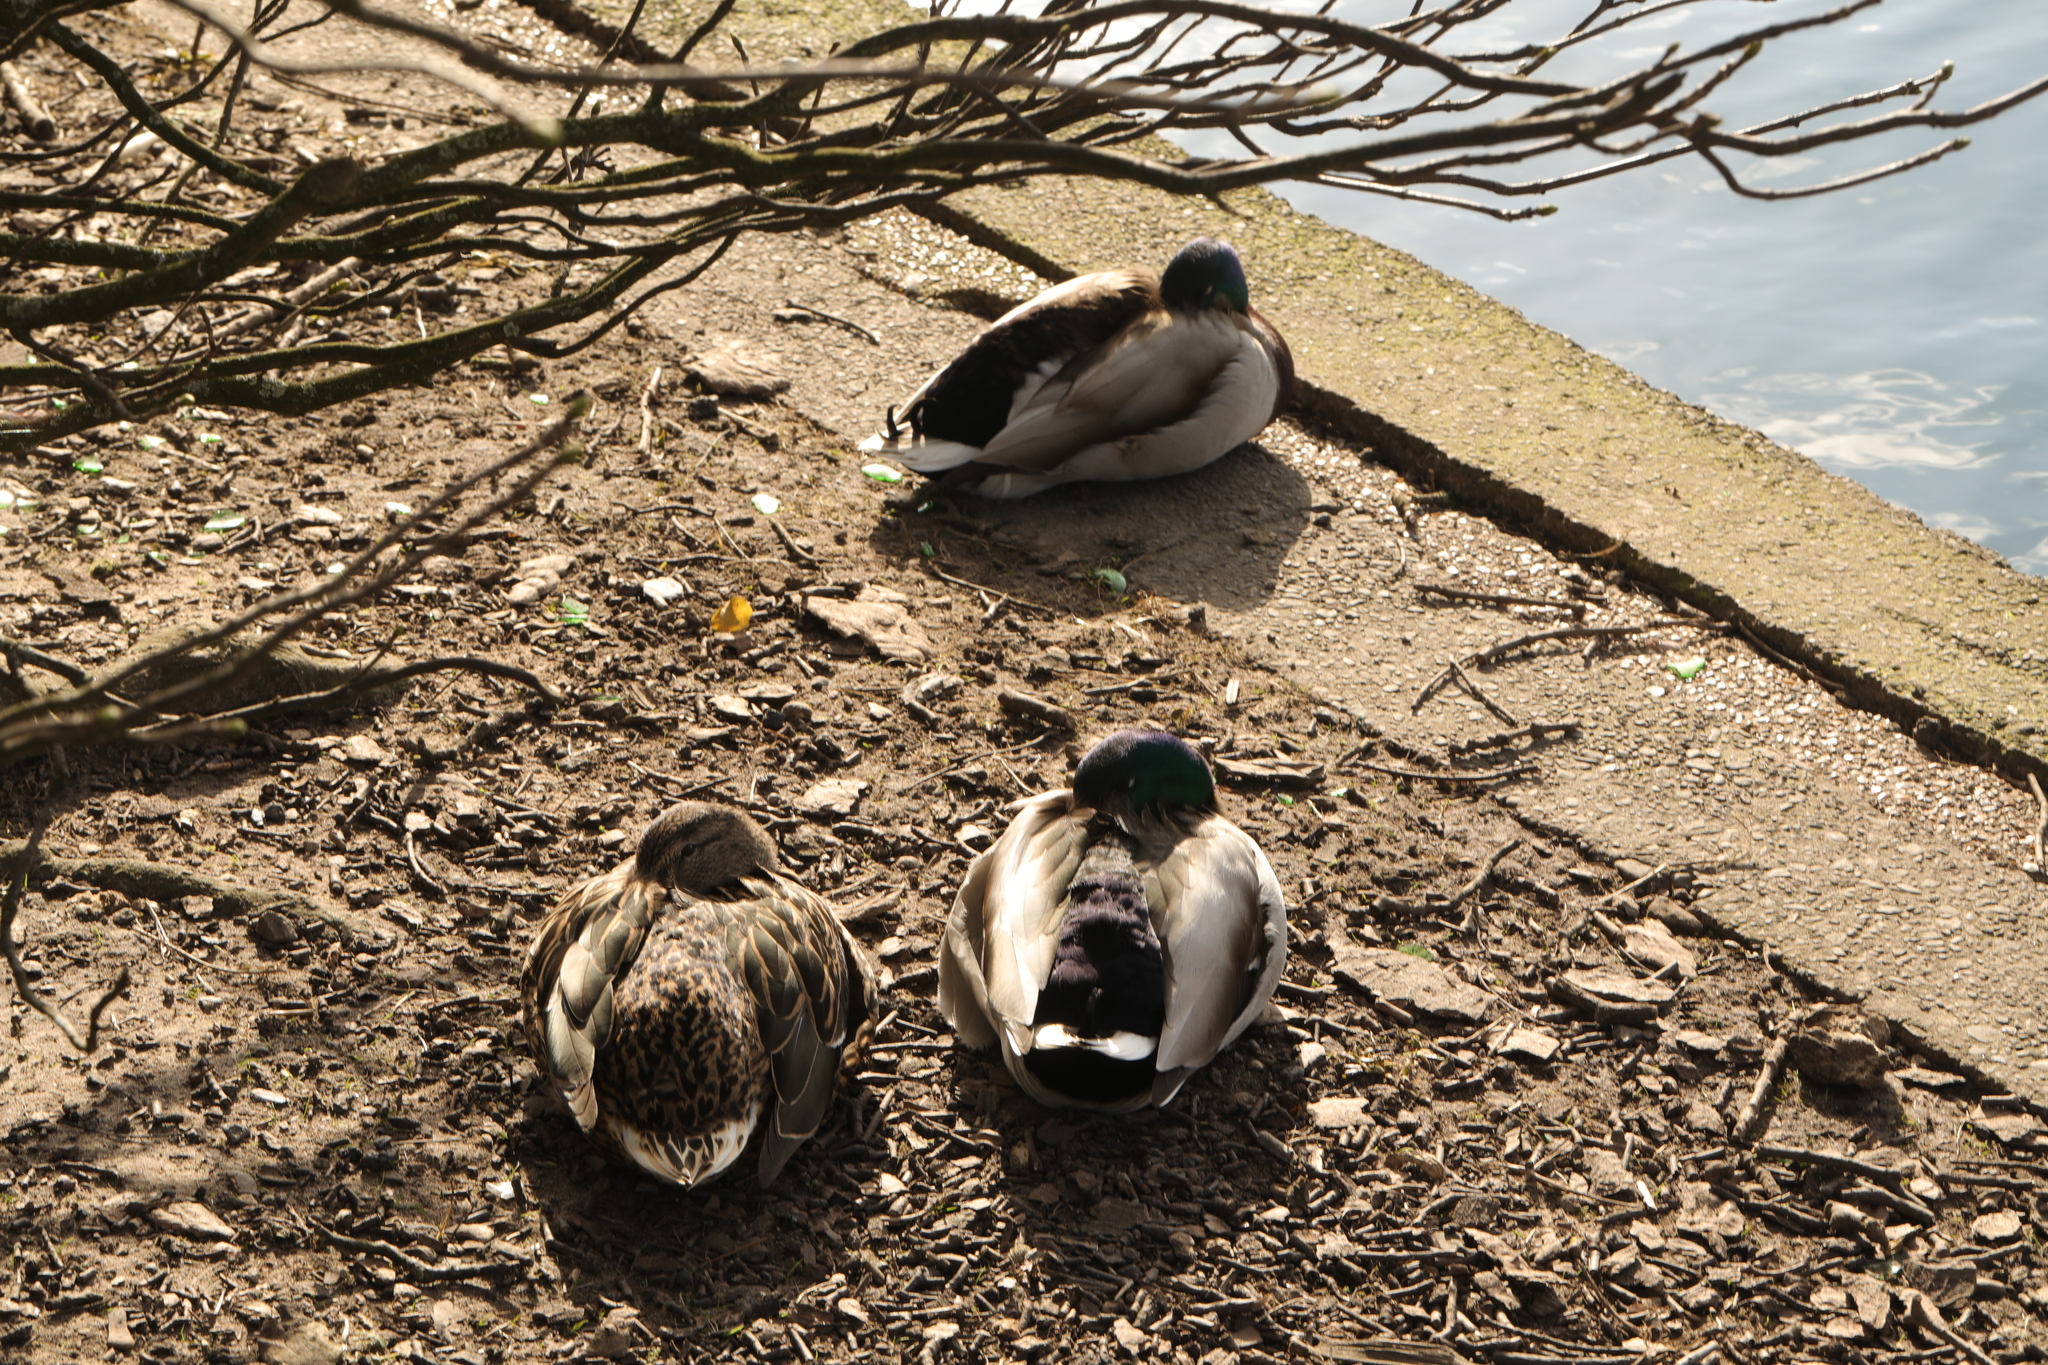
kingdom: Animalia
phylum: Chordata
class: Aves
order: Anseriformes
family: Anatidae
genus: Anas
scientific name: Anas platyrhynchos
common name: Mallard
